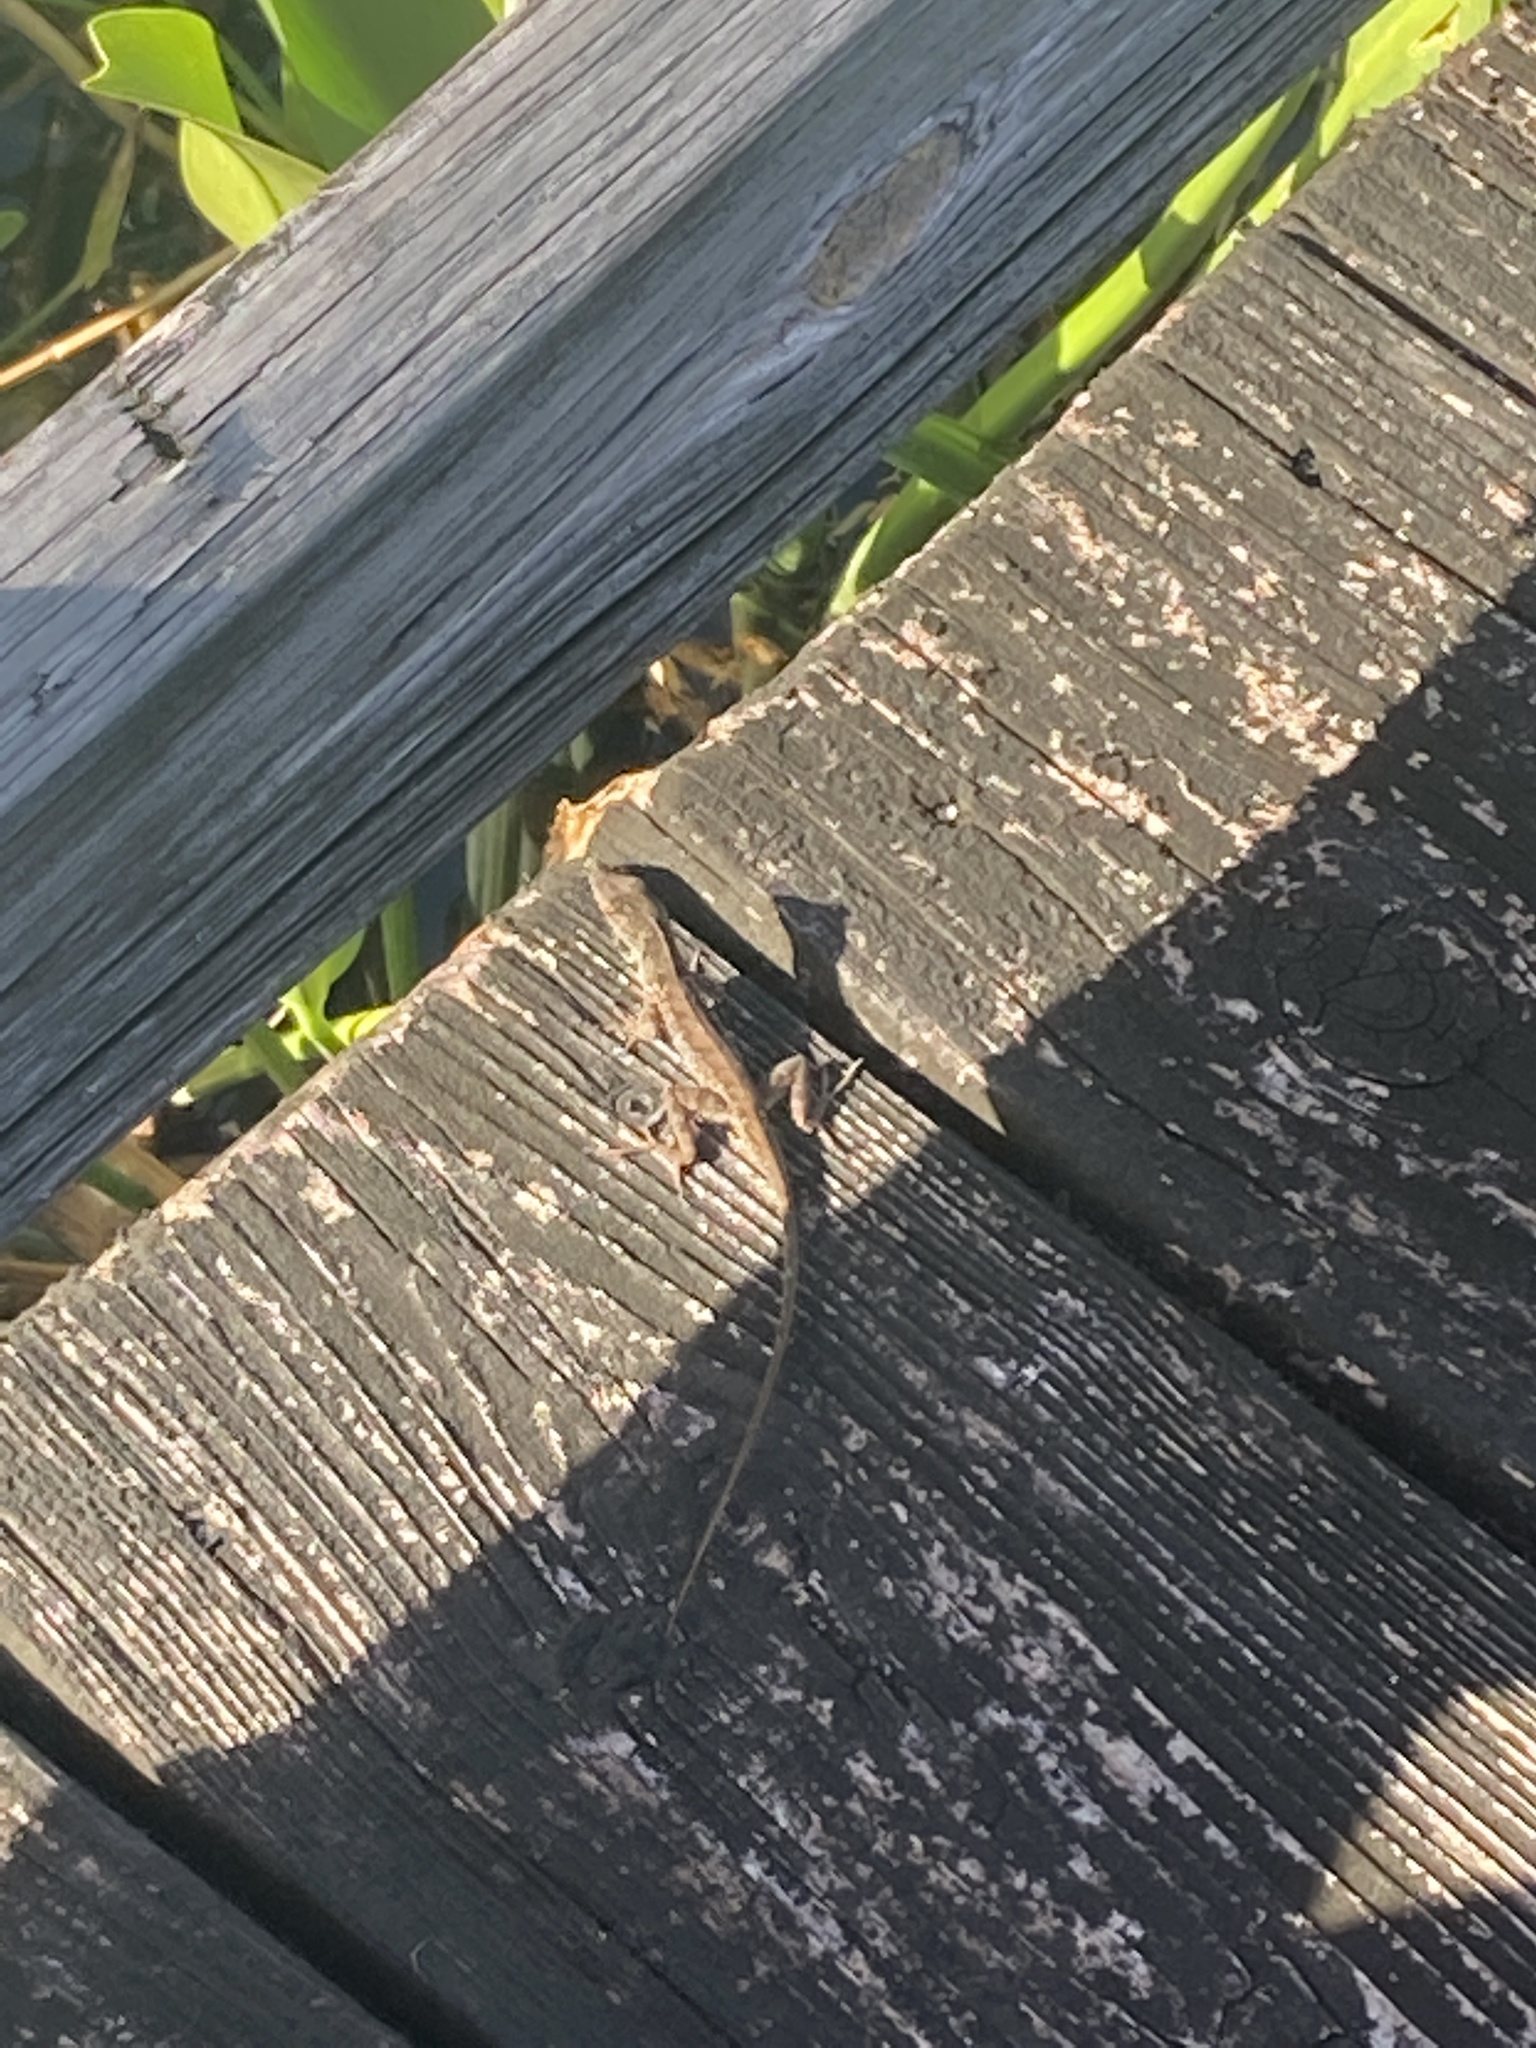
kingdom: Animalia
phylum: Chordata
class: Squamata
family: Dactyloidae
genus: Anolis
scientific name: Anolis sagrei
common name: Brown anole
